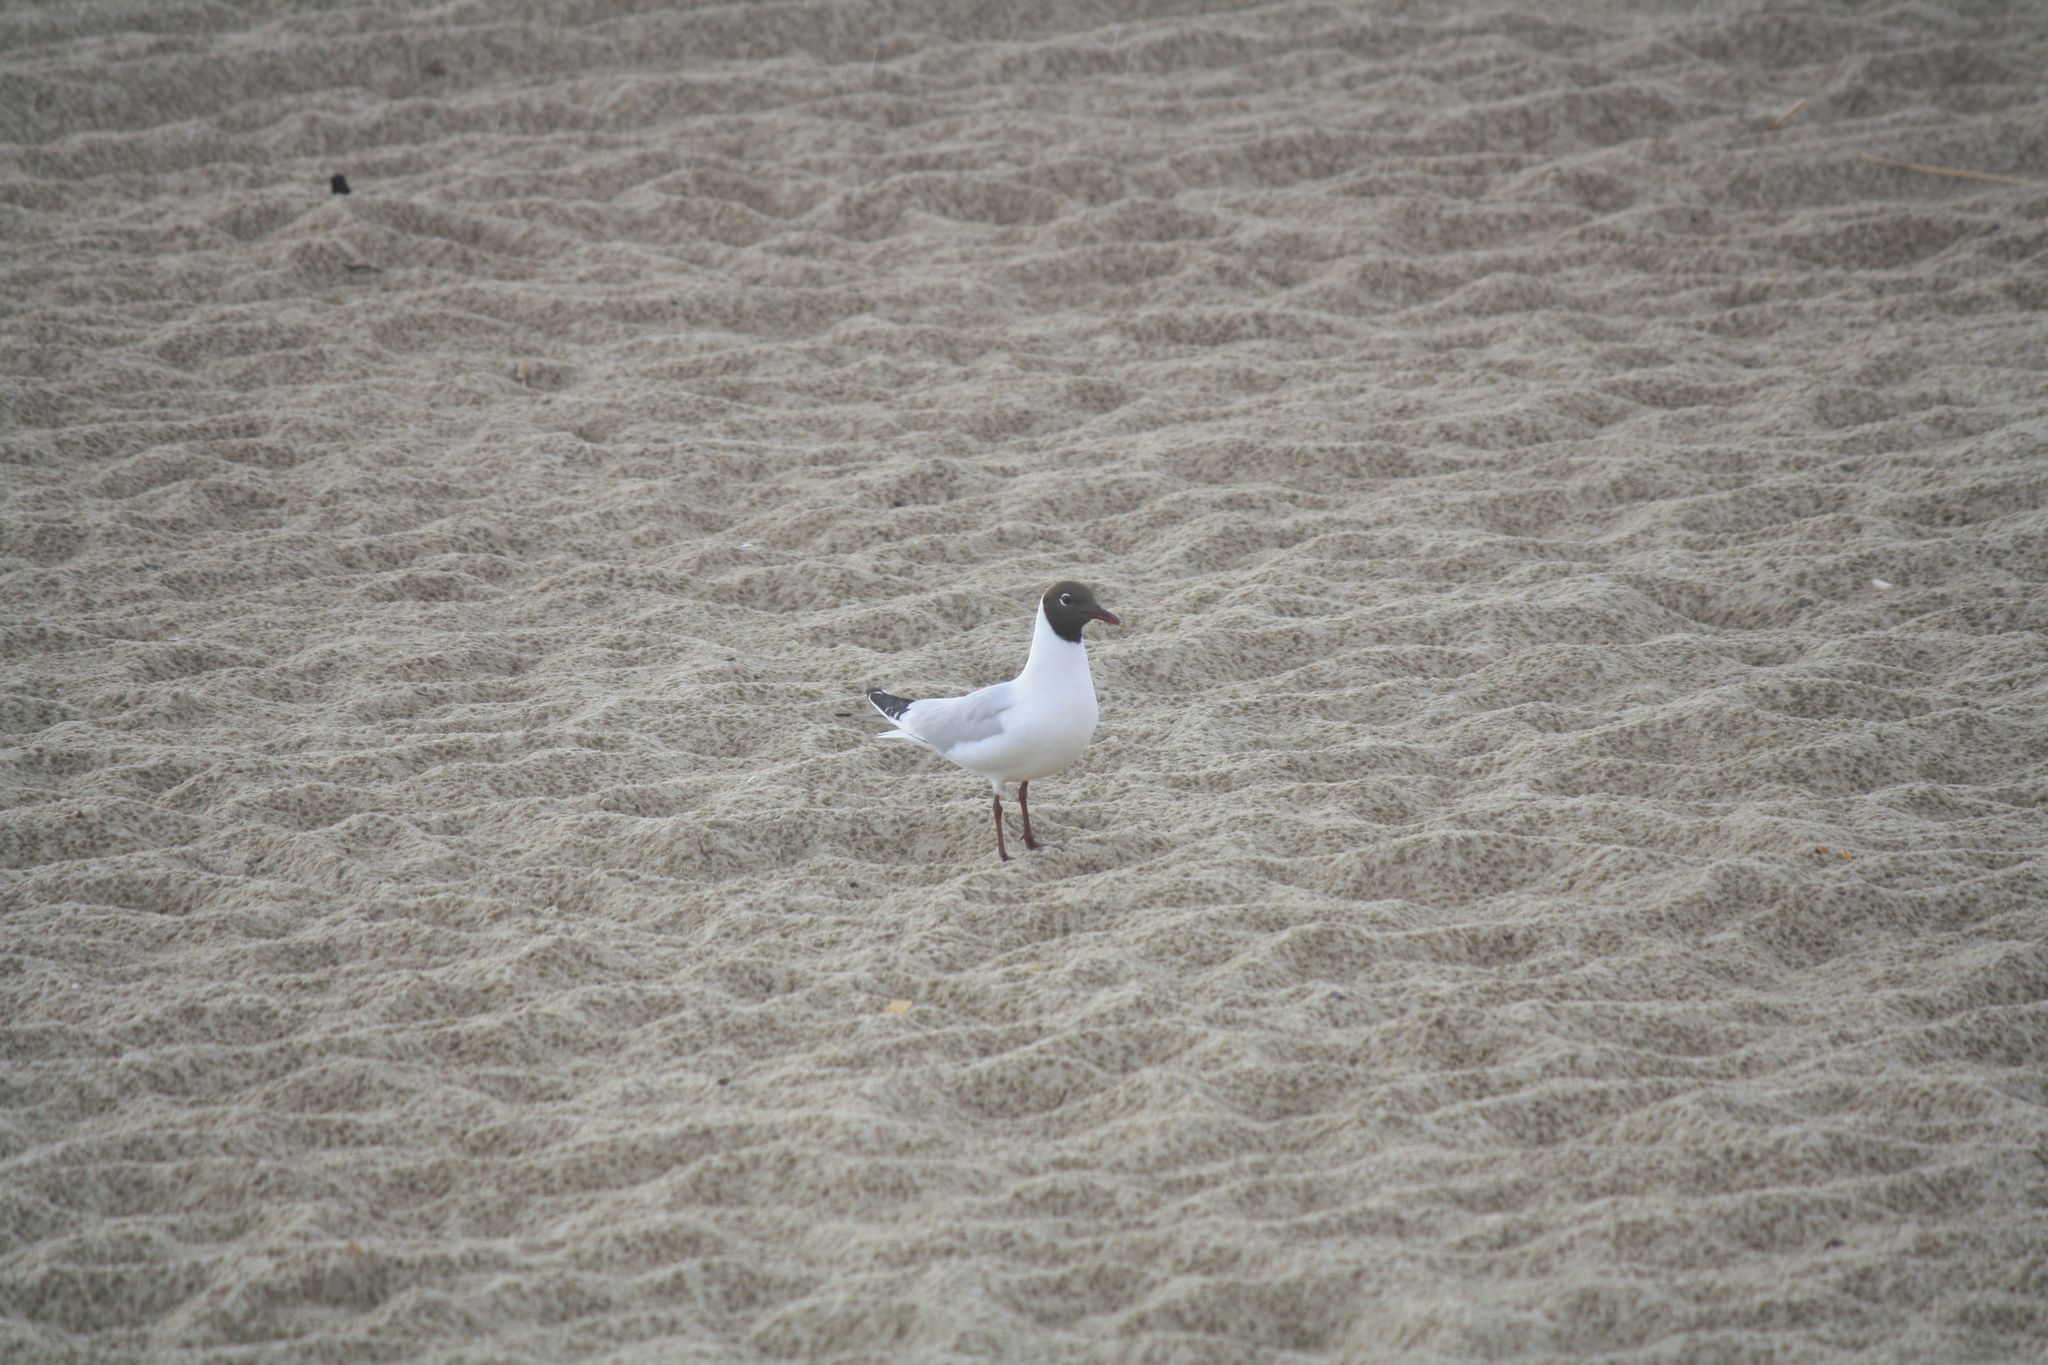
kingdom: Animalia
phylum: Chordata
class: Aves
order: Charadriiformes
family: Laridae
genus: Chroicocephalus
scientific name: Chroicocephalus ridibundus
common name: Black-headed gull
